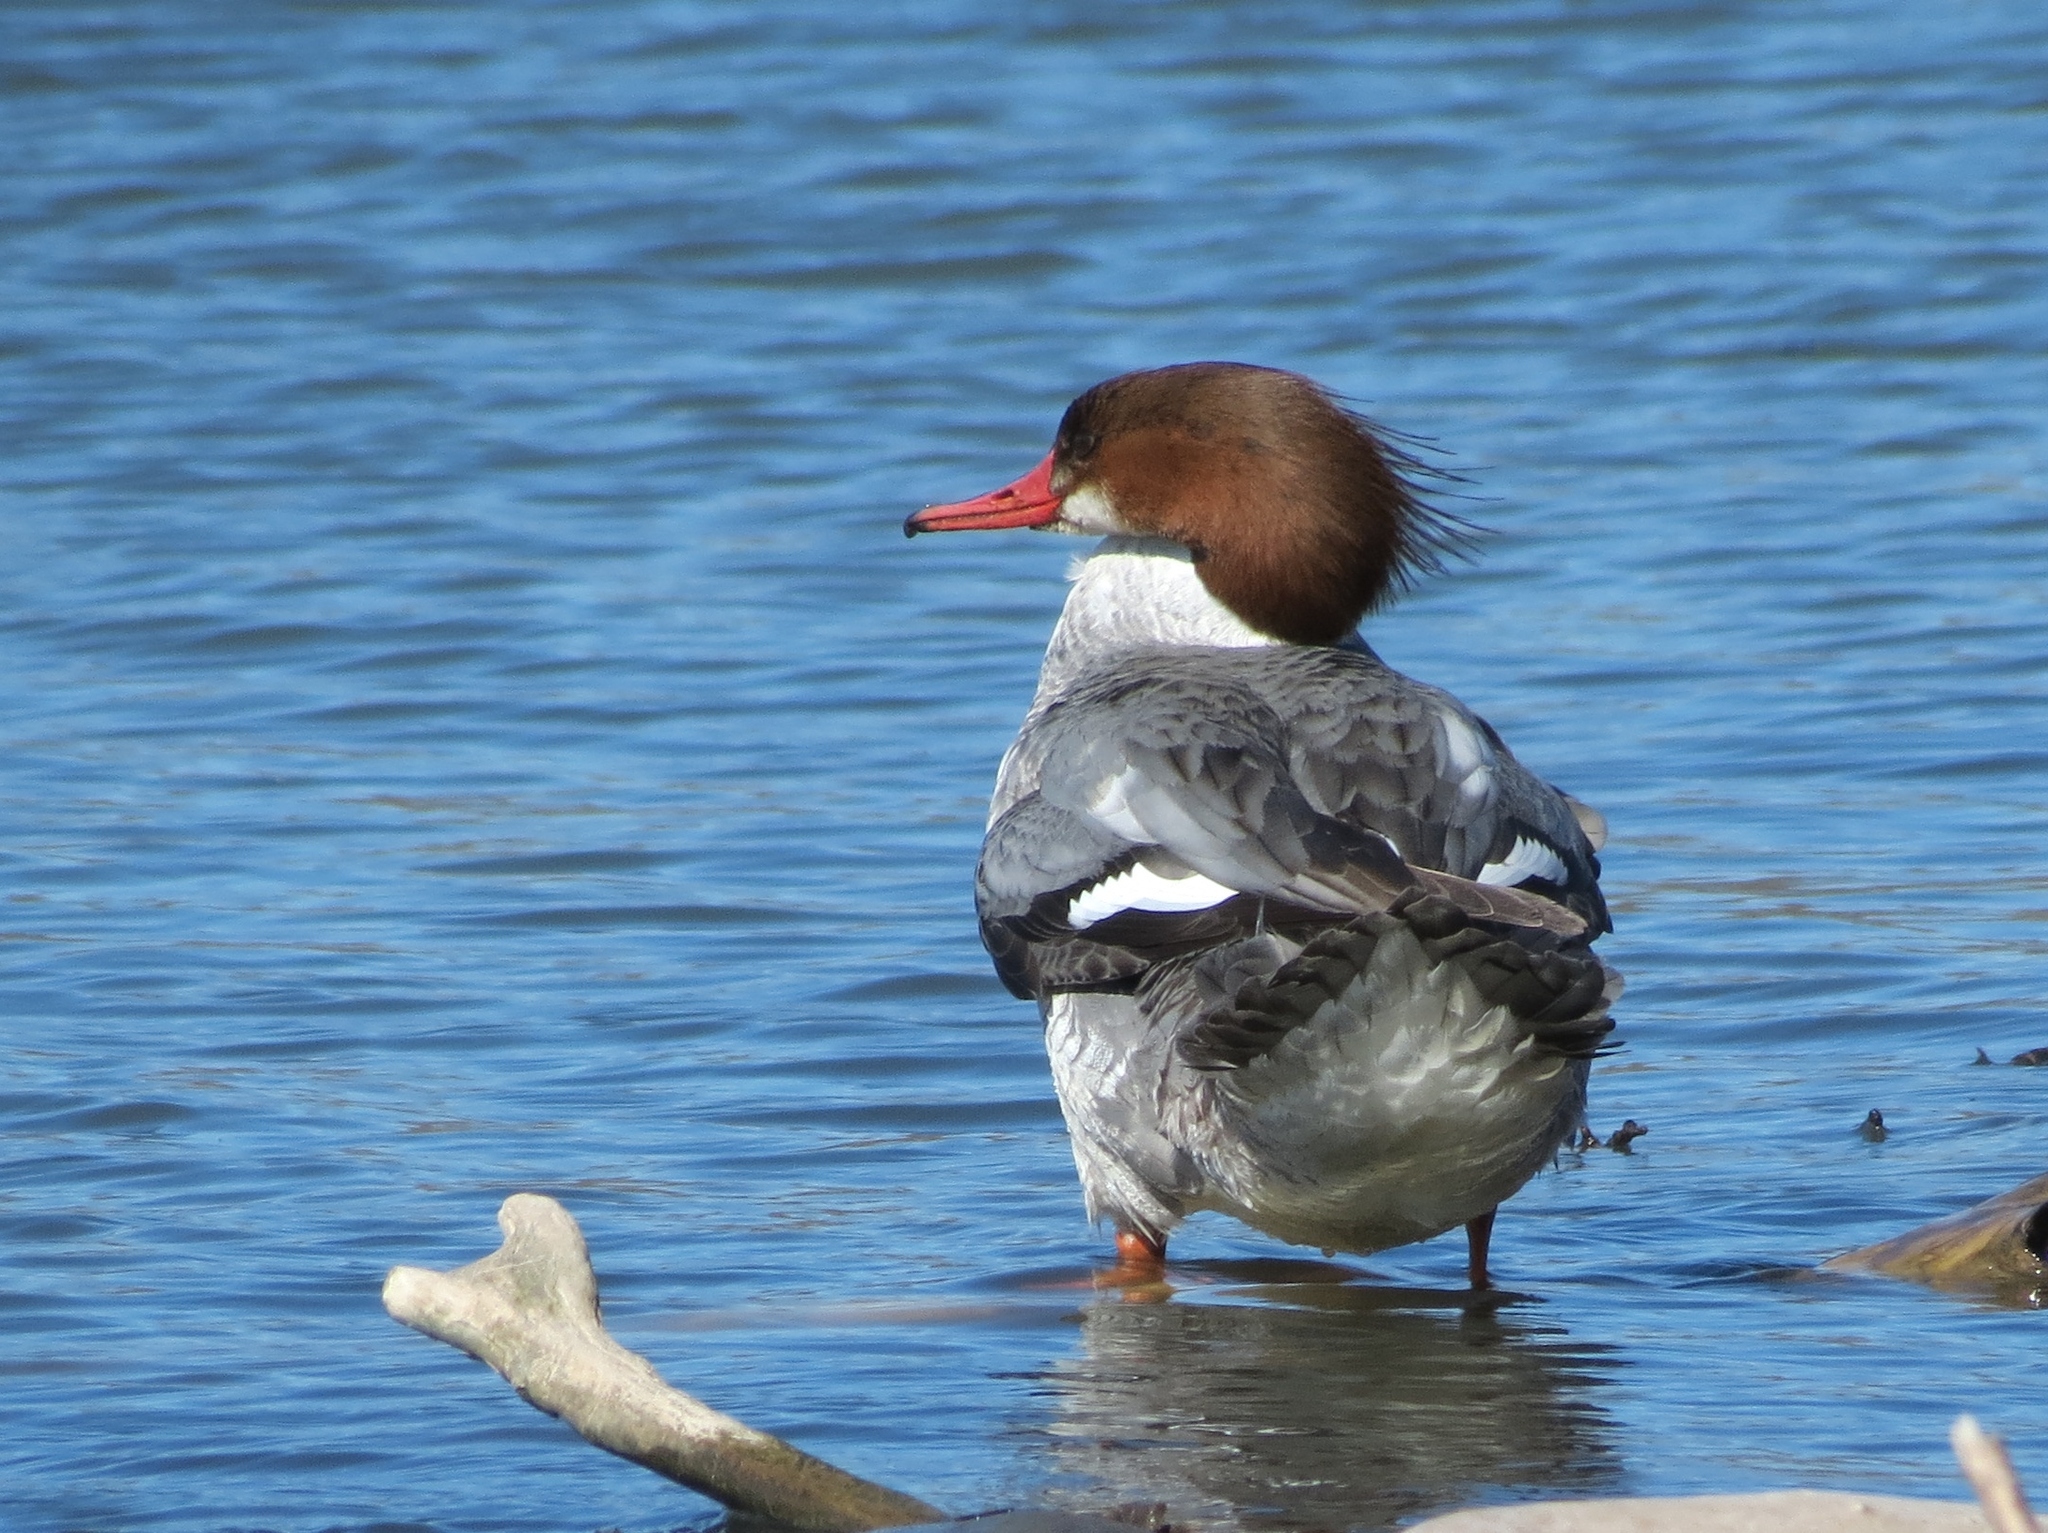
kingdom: Animalia
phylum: Chordata
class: Aves
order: Anseriformes
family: Anatidae
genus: Mergus
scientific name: Mergus merganser
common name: Common merganser
